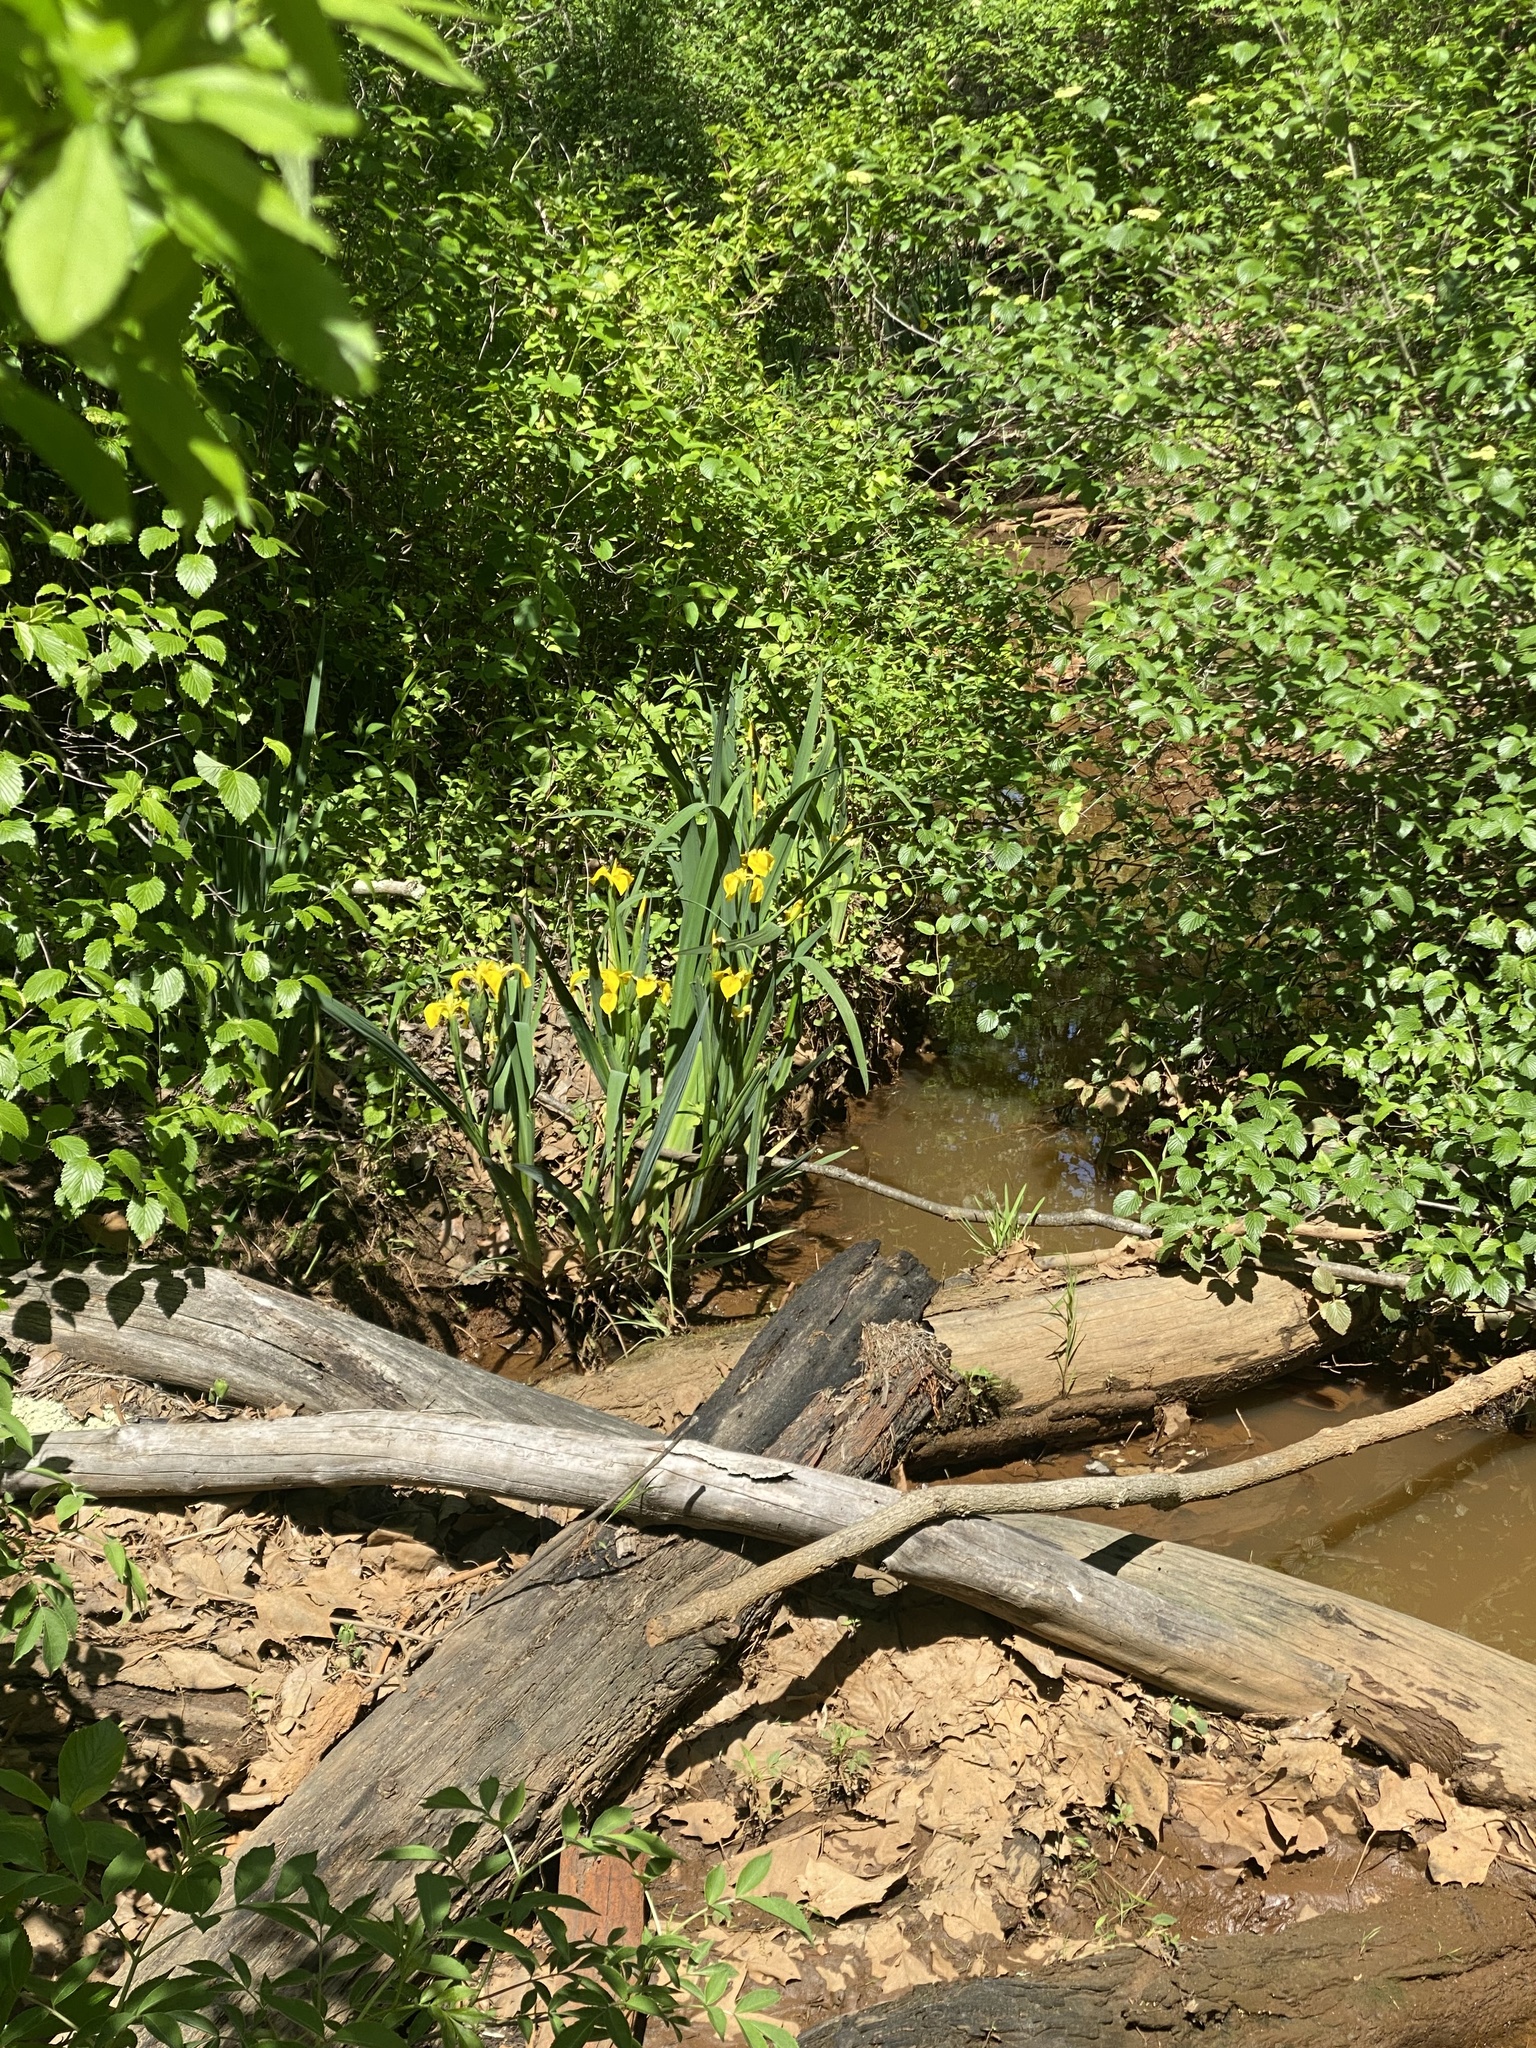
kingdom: Plantae
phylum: Tracheophyta
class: Liliopsida
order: Asparagales
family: Iridaceae
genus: Iris
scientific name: Iris pseudacorus
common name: Yellow flag
